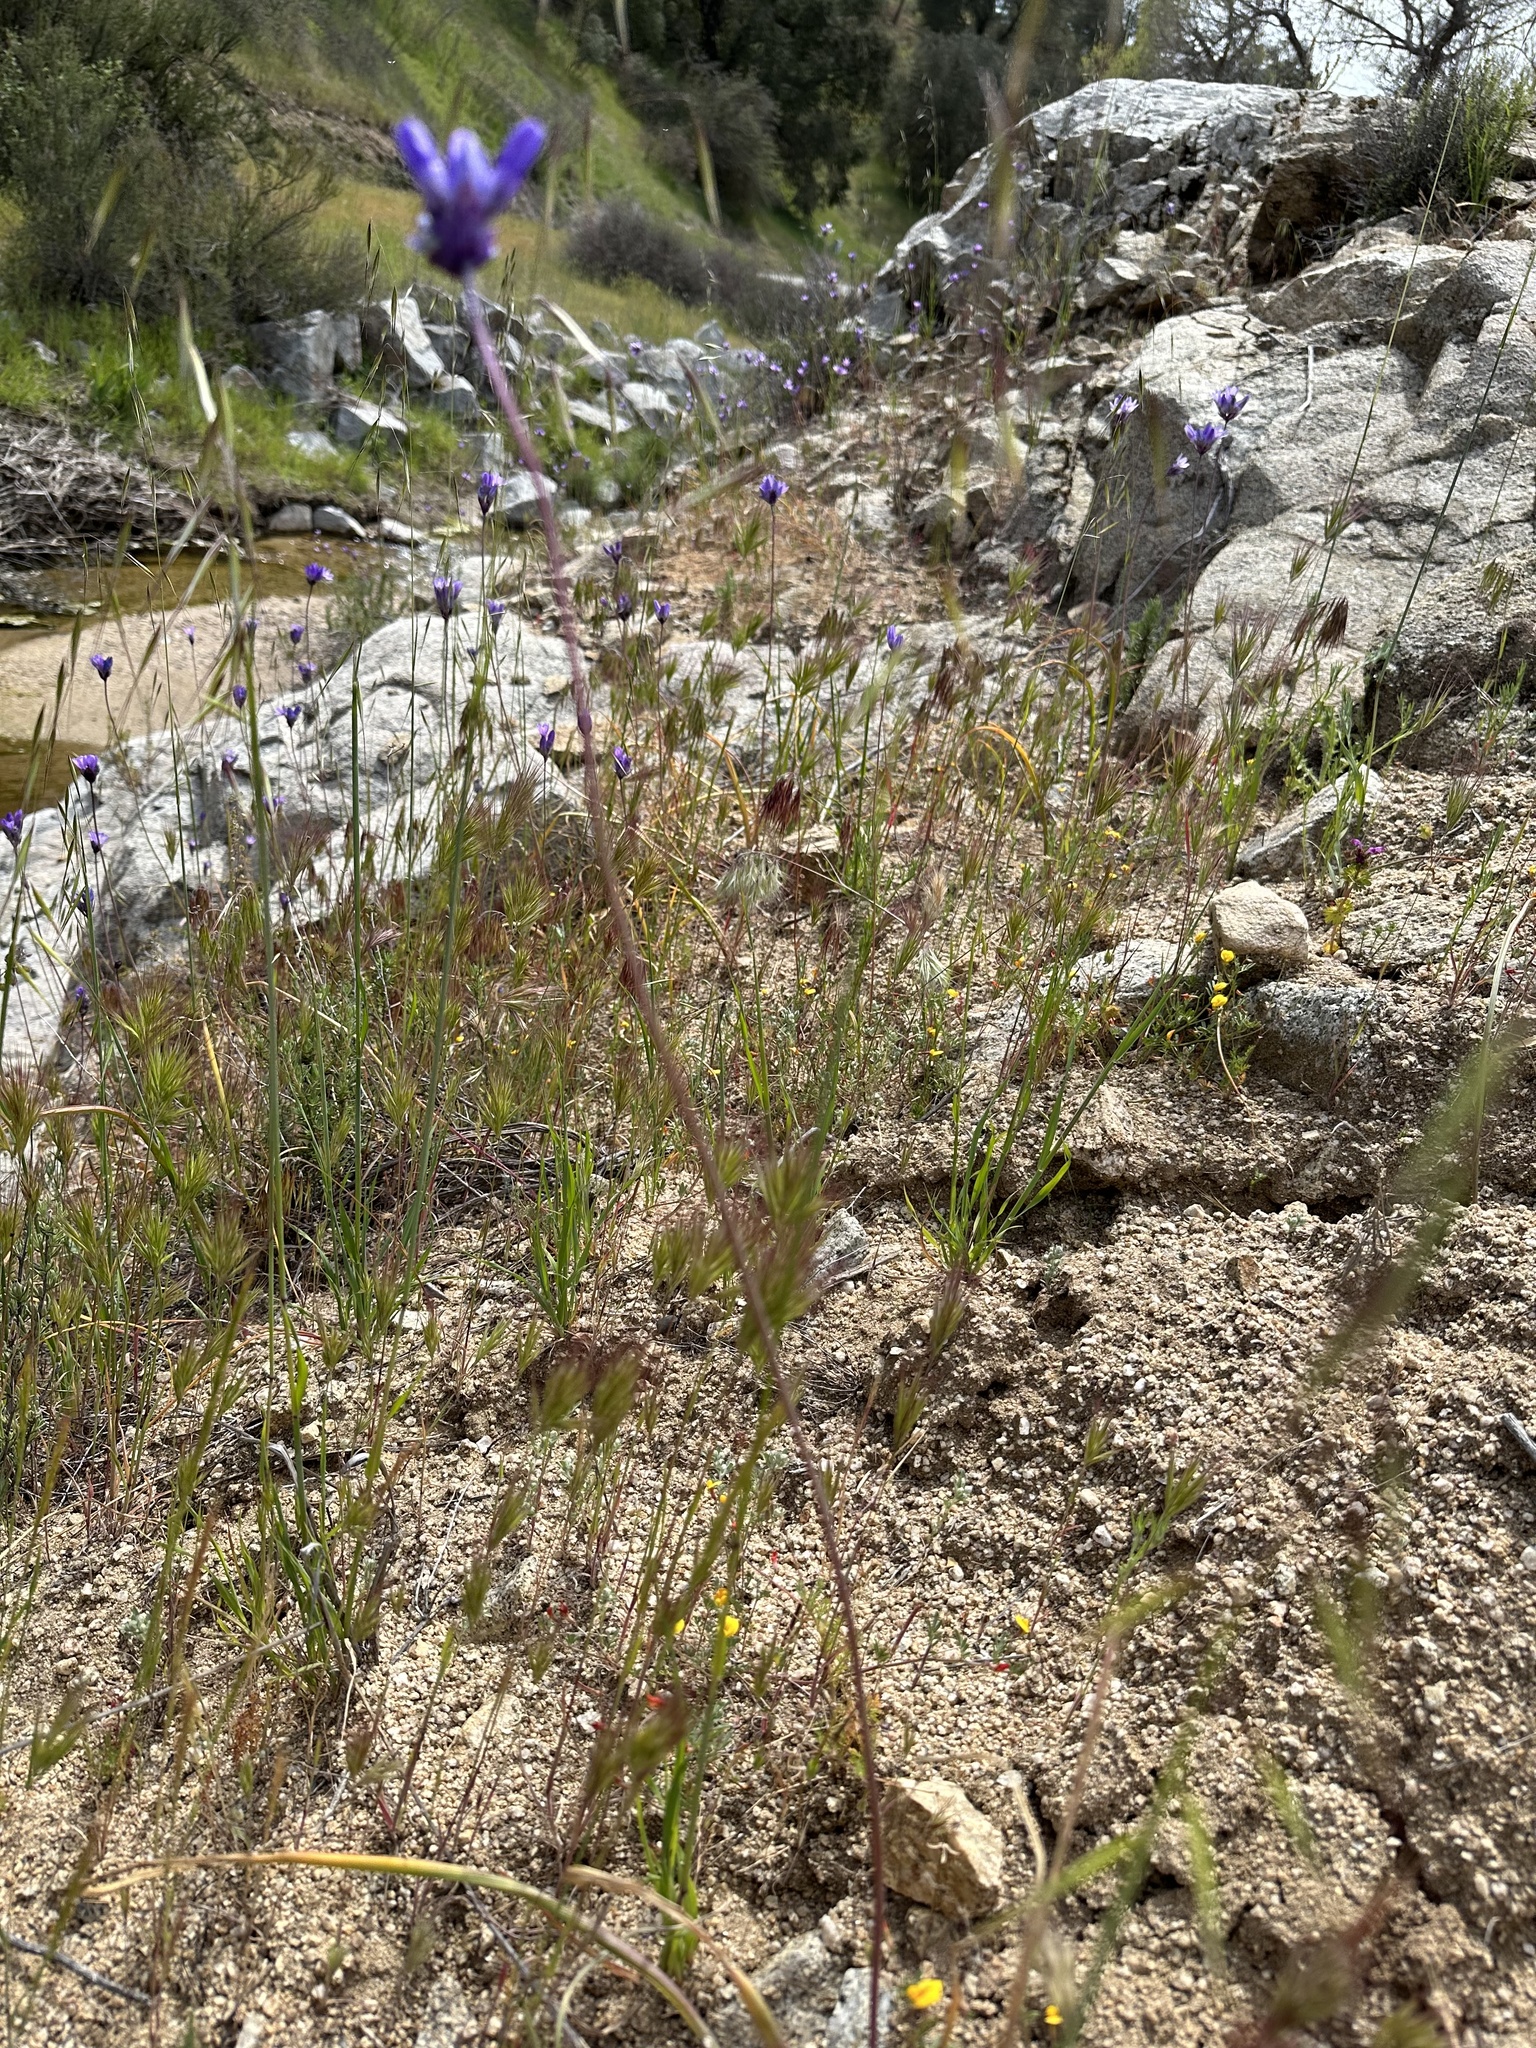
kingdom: Plantae
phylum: Tracheophyta
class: Liliopsida
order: Asparagales
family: Asparagaceae
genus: Dipterostemon
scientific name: Dipterostemon capitatus
